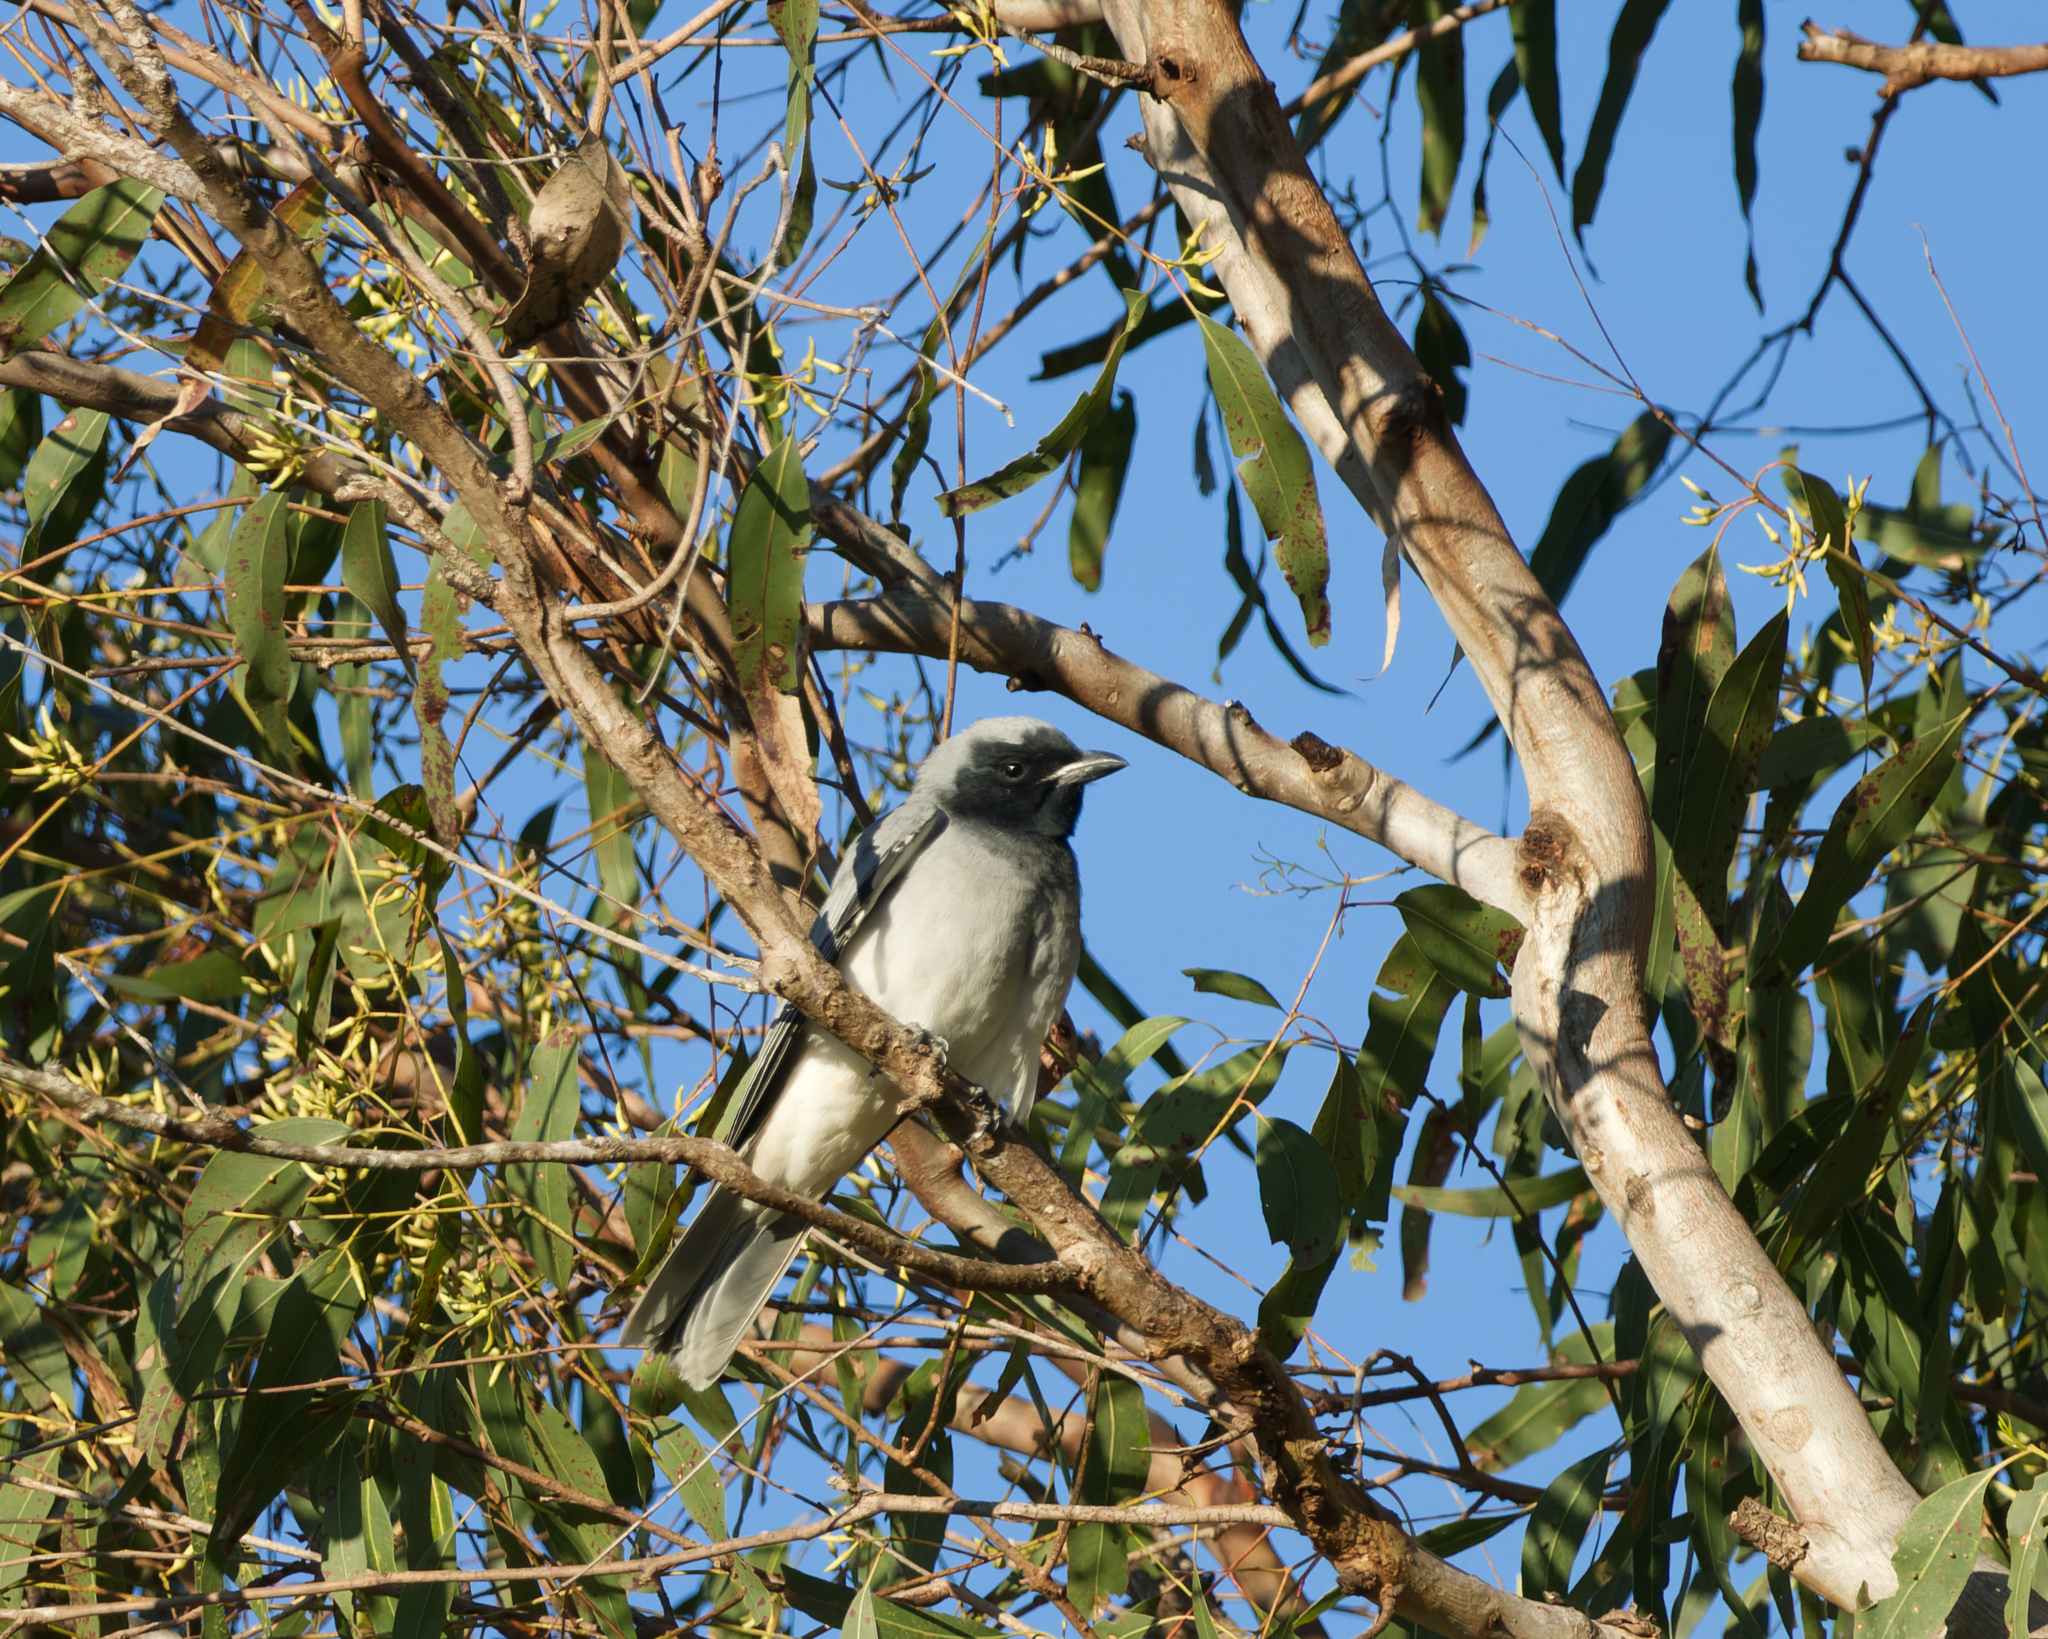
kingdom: Animalia
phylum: Chordata
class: Aves
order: Passeriformes
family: Campephagidae
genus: Coracina
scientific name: Coracina novaehollandiae
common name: Black-faced cuckooshrike
